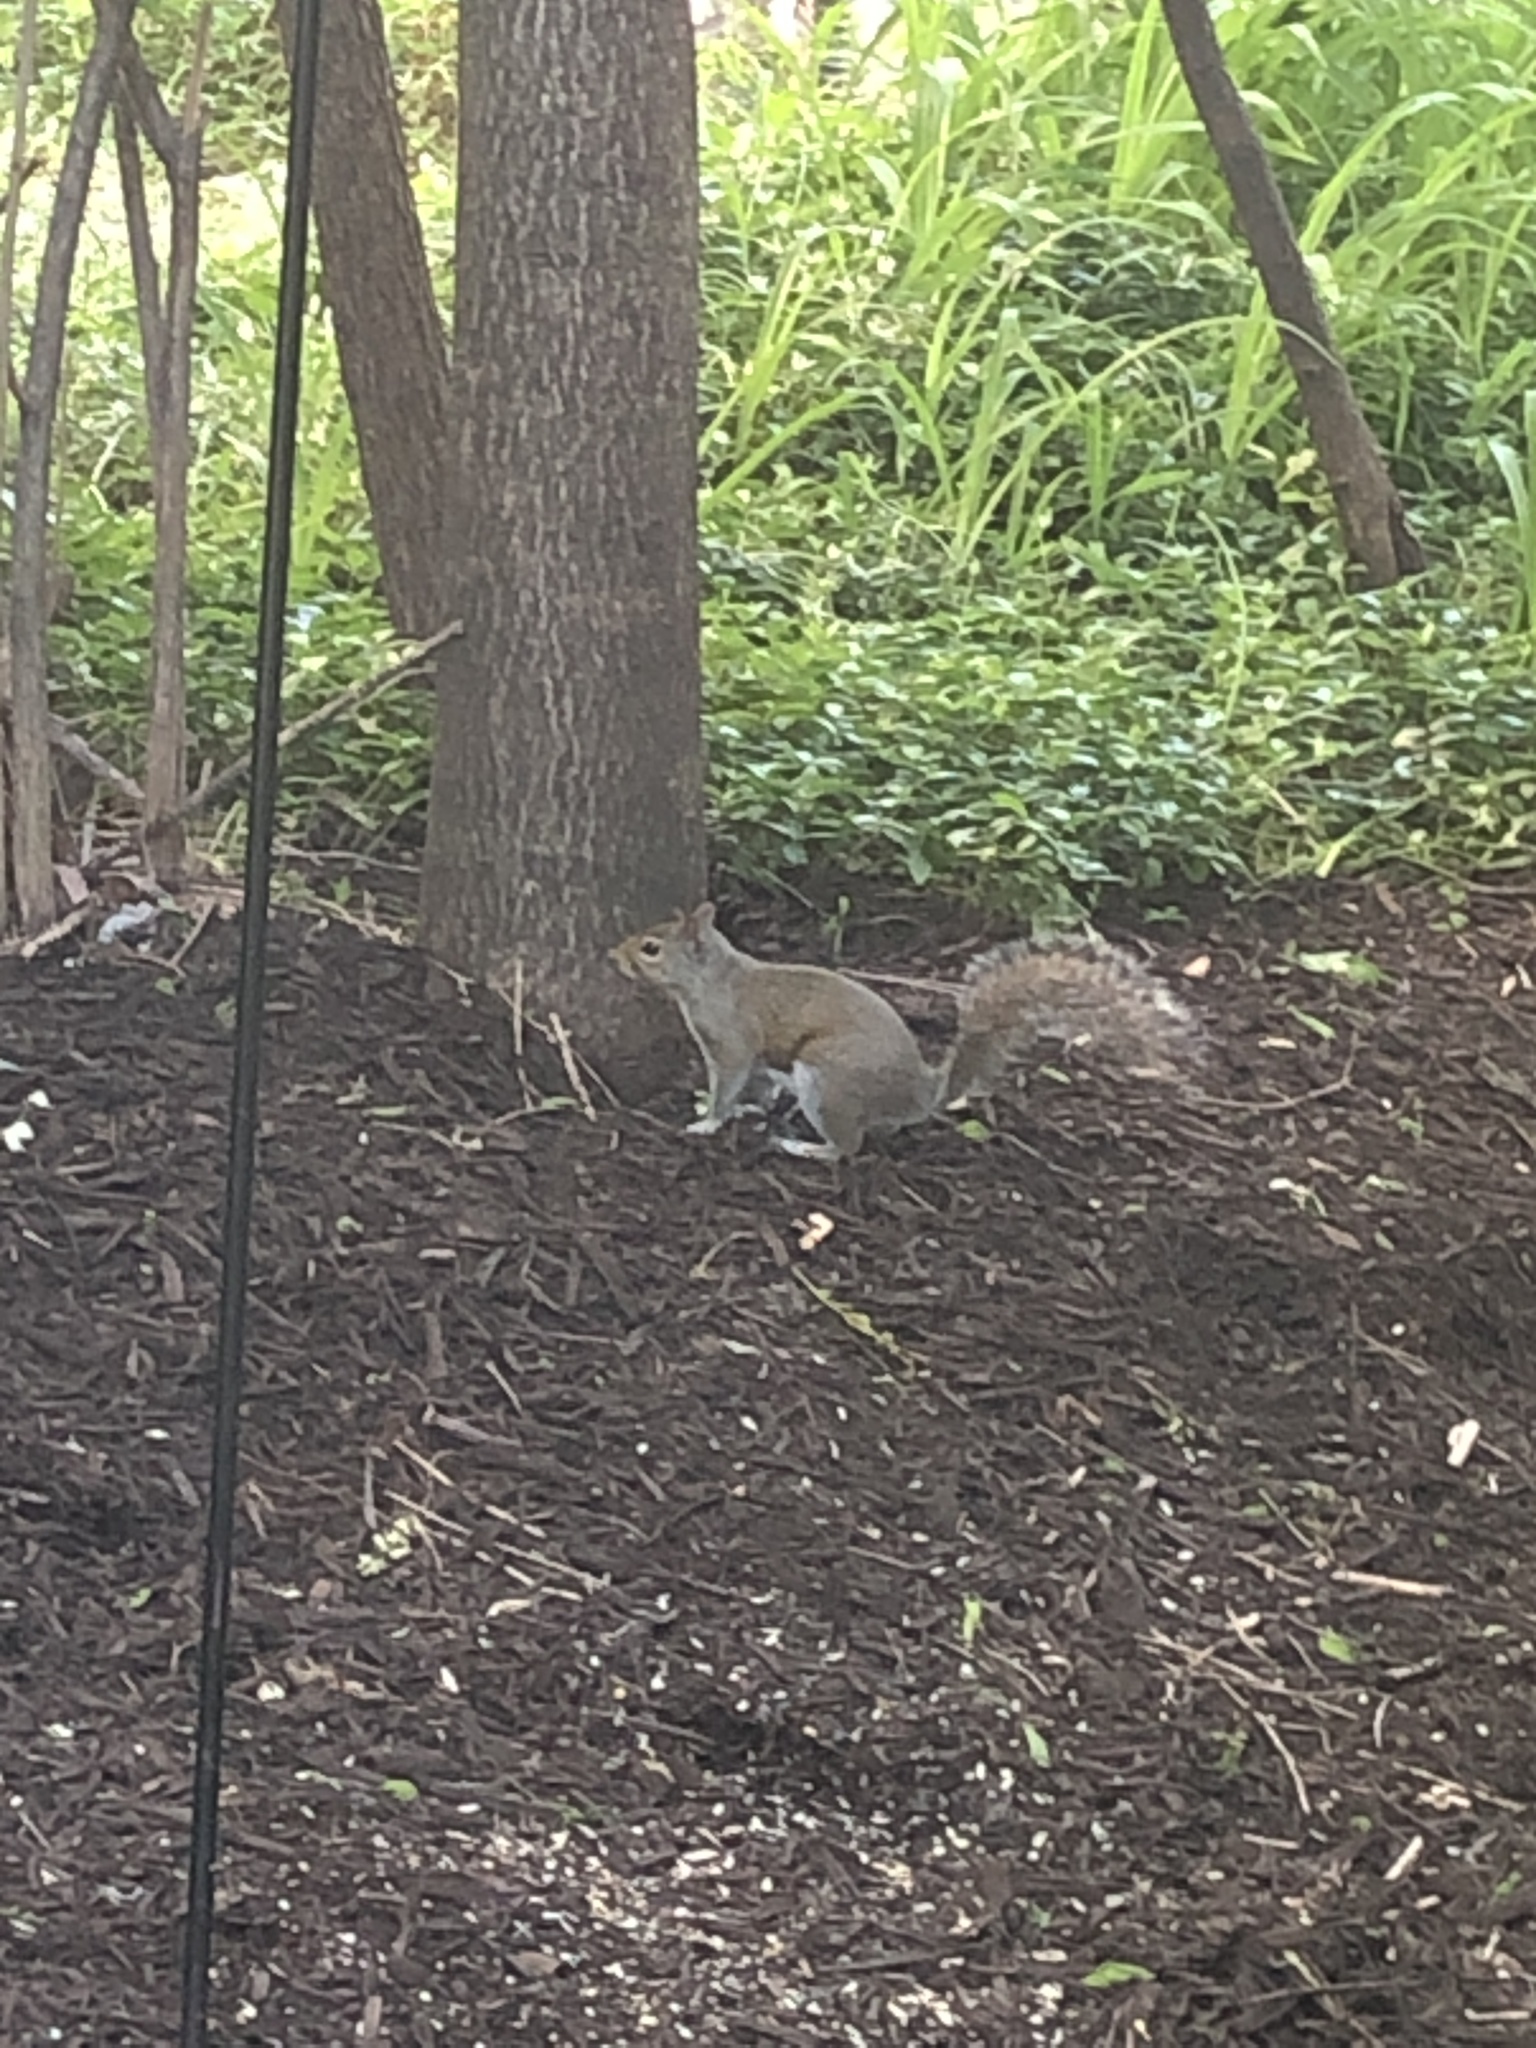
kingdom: Animalia
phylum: Chordata
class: Mammalia
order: Rodentia
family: Sciuridae
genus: Sciurus
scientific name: Sciurus carolinensis
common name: Eastern gray squirrel
